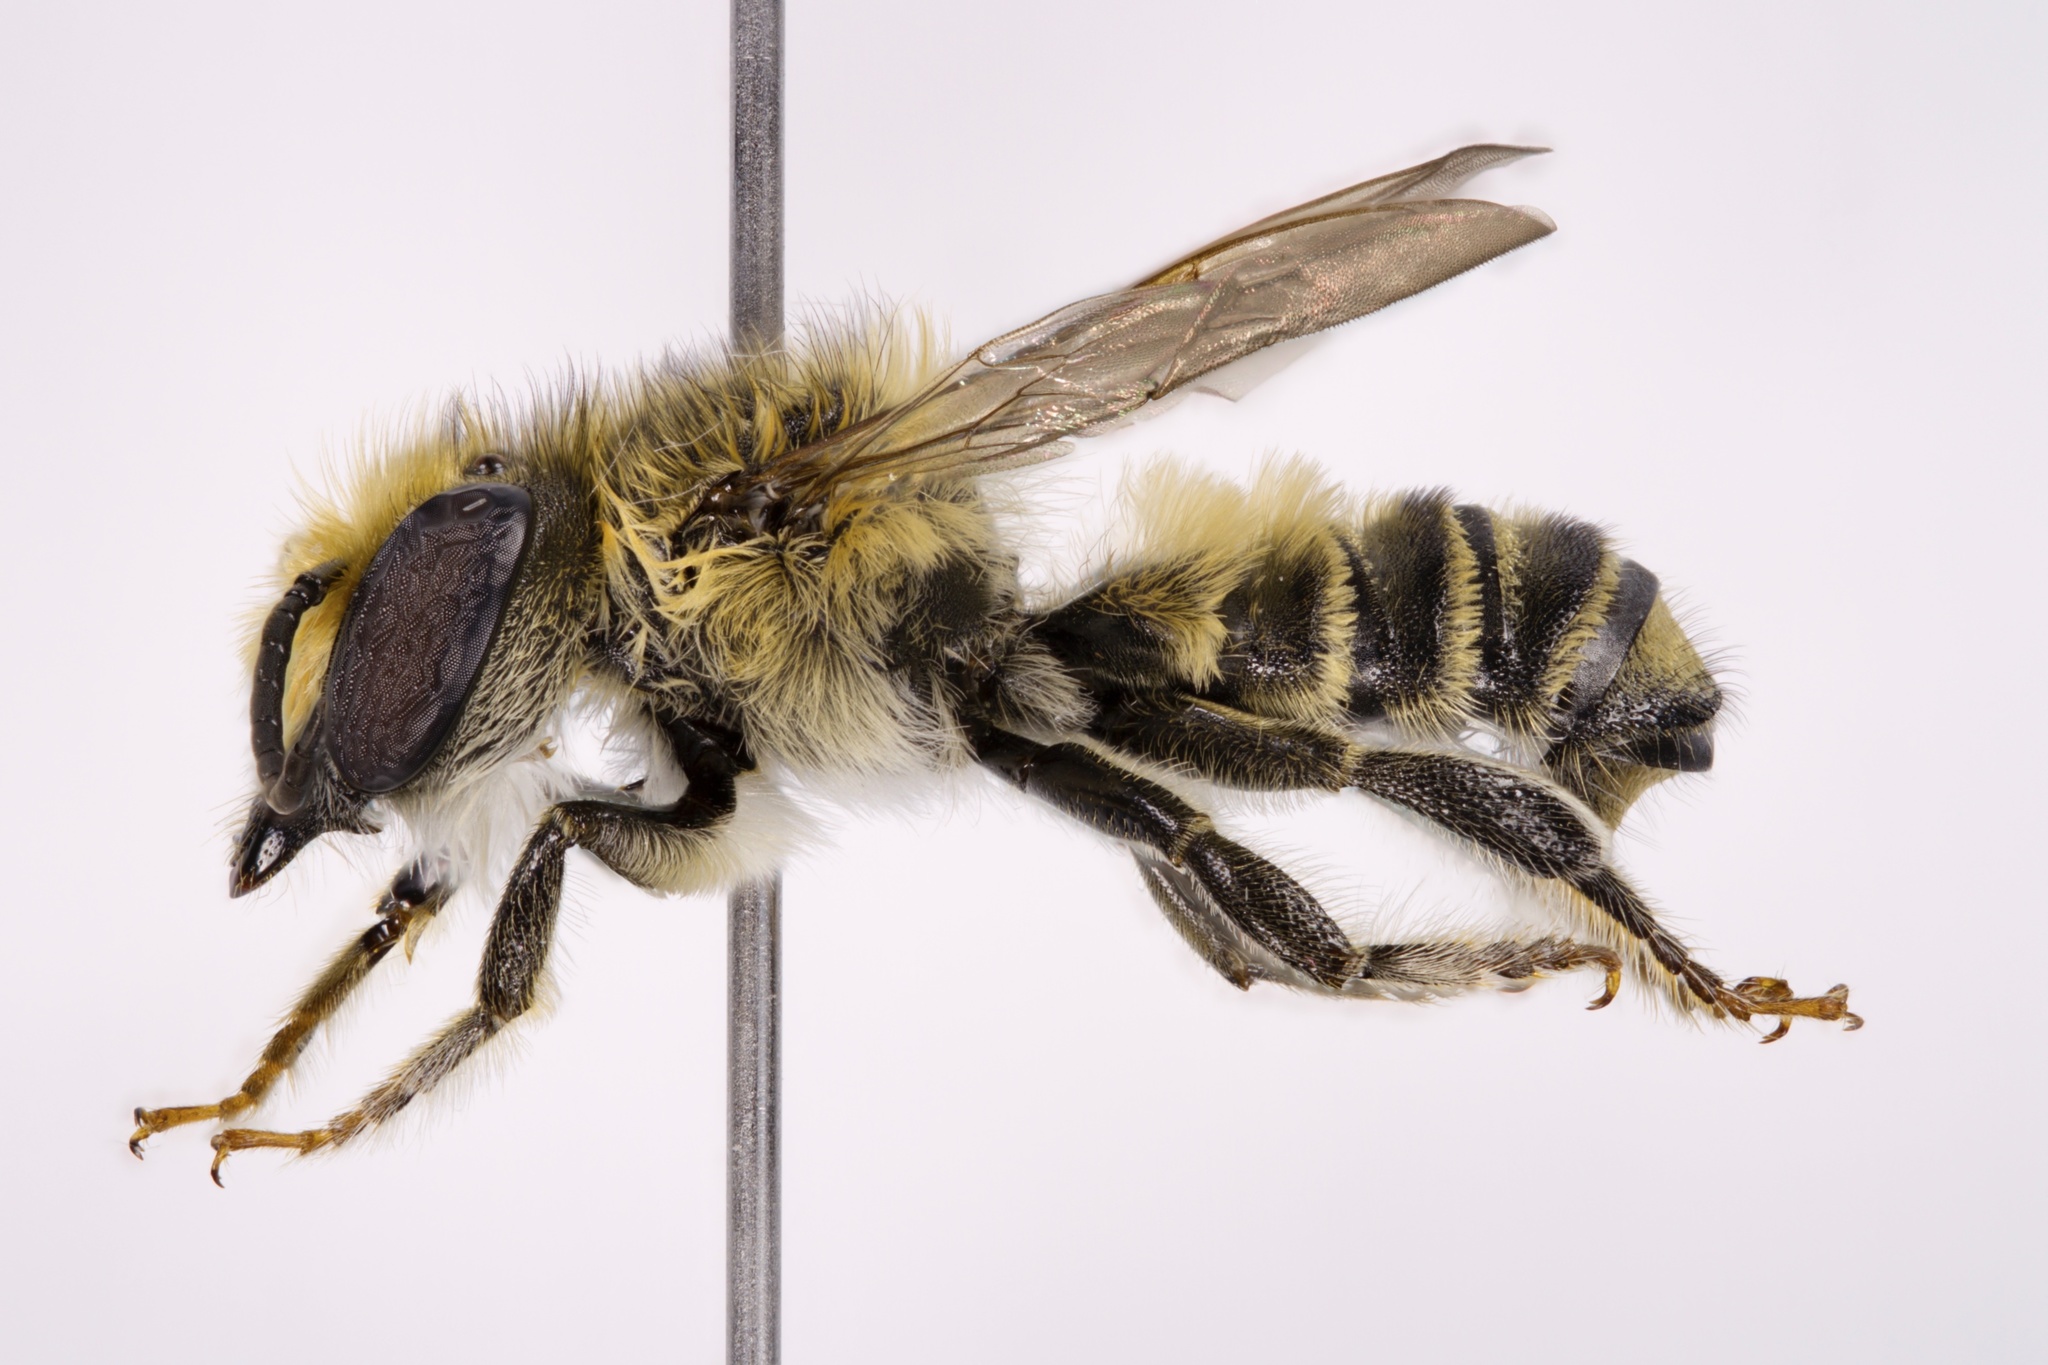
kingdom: Animalia
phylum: Arthropoda
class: Insecta
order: Hymenoptera
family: Megachilidae
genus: Megachile
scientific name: Megachile petulans
